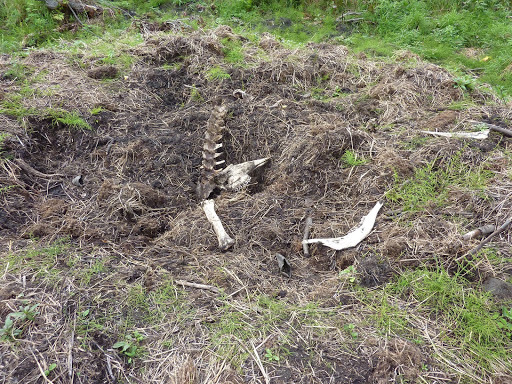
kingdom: Animalia
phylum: Chordata
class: Mammalia
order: Artiodactyla
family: Cervidae
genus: Alces
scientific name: Alces alces
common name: Moose
